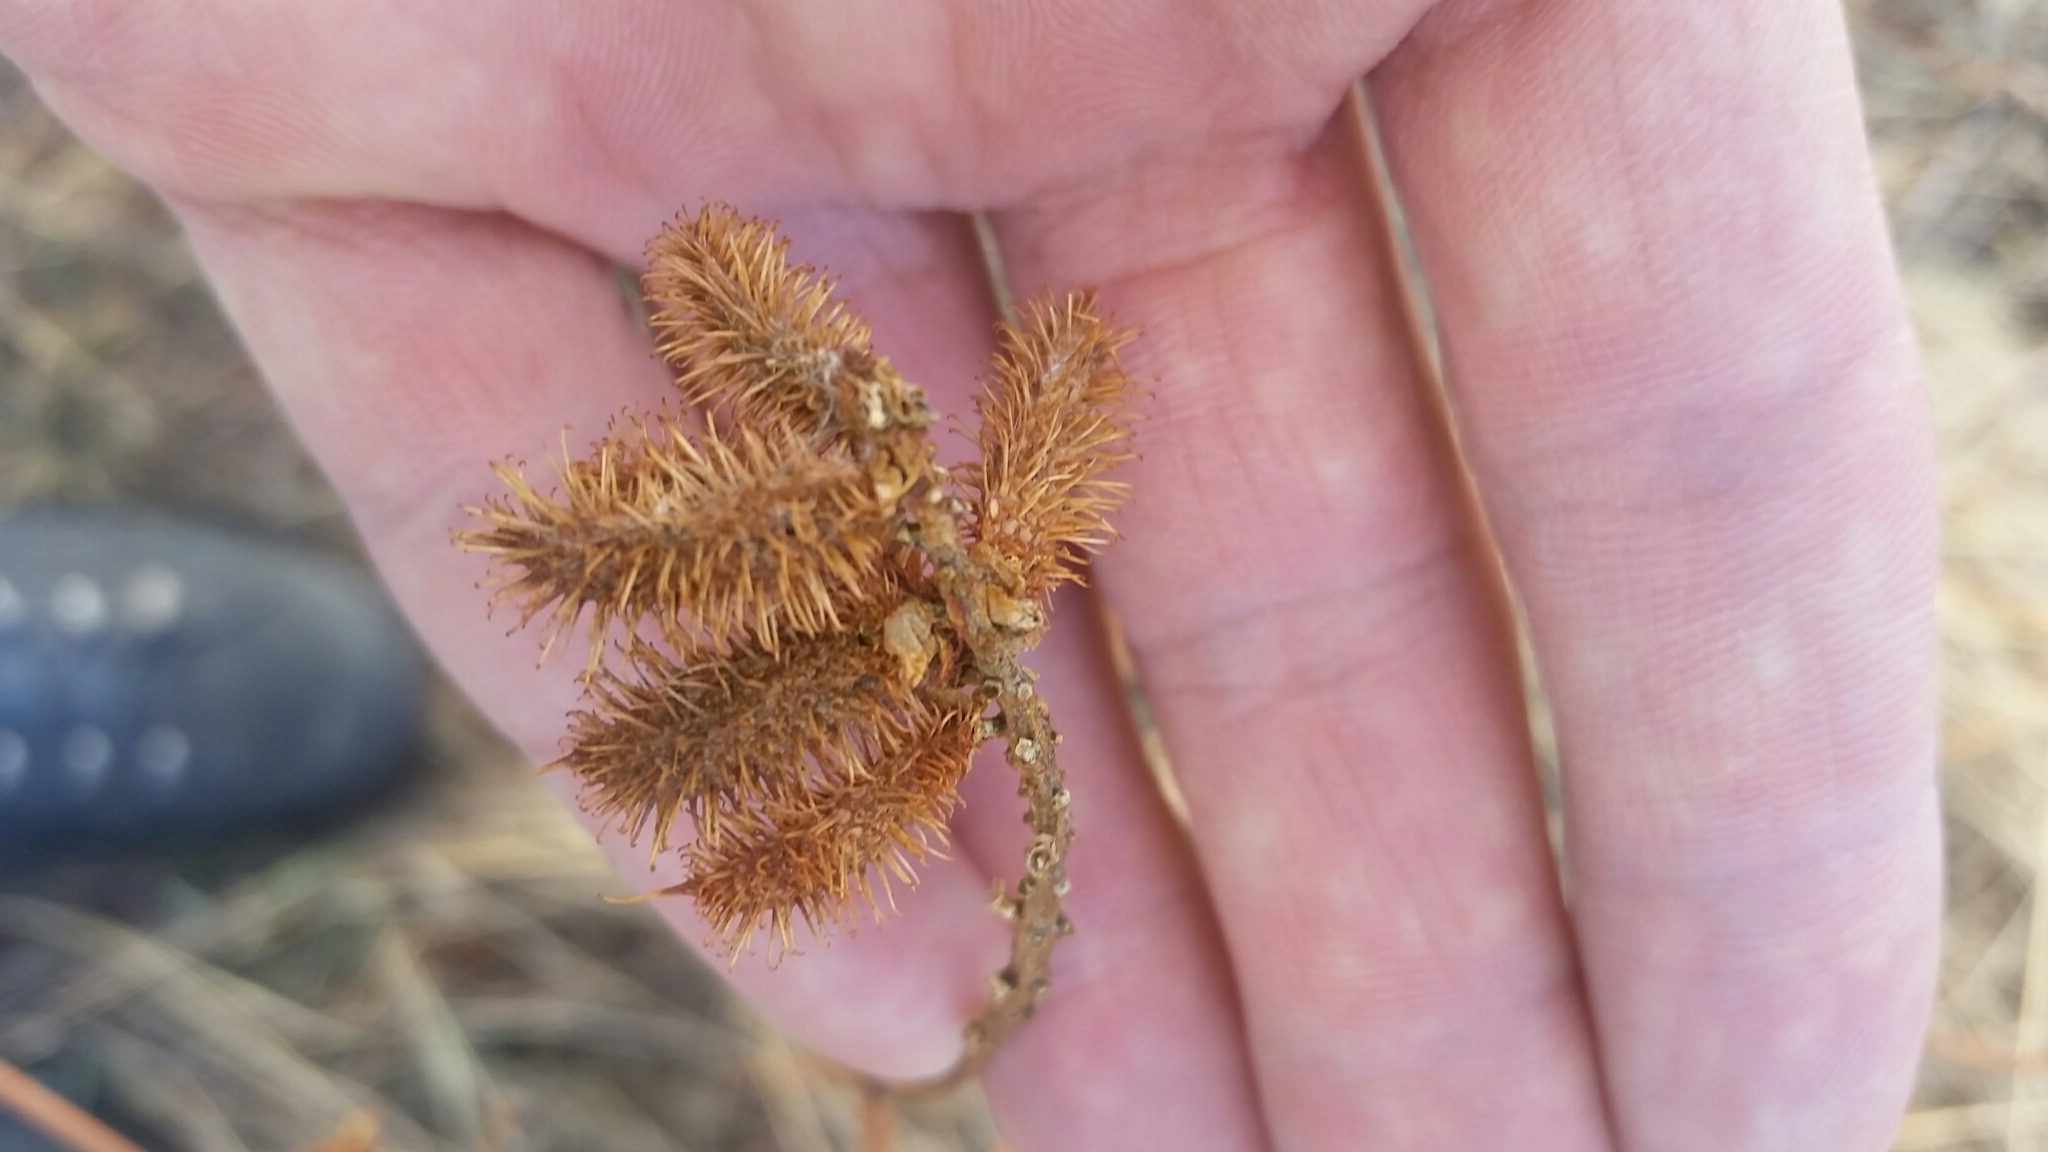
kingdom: Plantae
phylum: Tracheophyta
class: Magnoliopsida
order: Fabales
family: Fabaceae
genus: Glycyrrhiza
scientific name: Glycyrrhiza lepidota
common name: American liquorice
